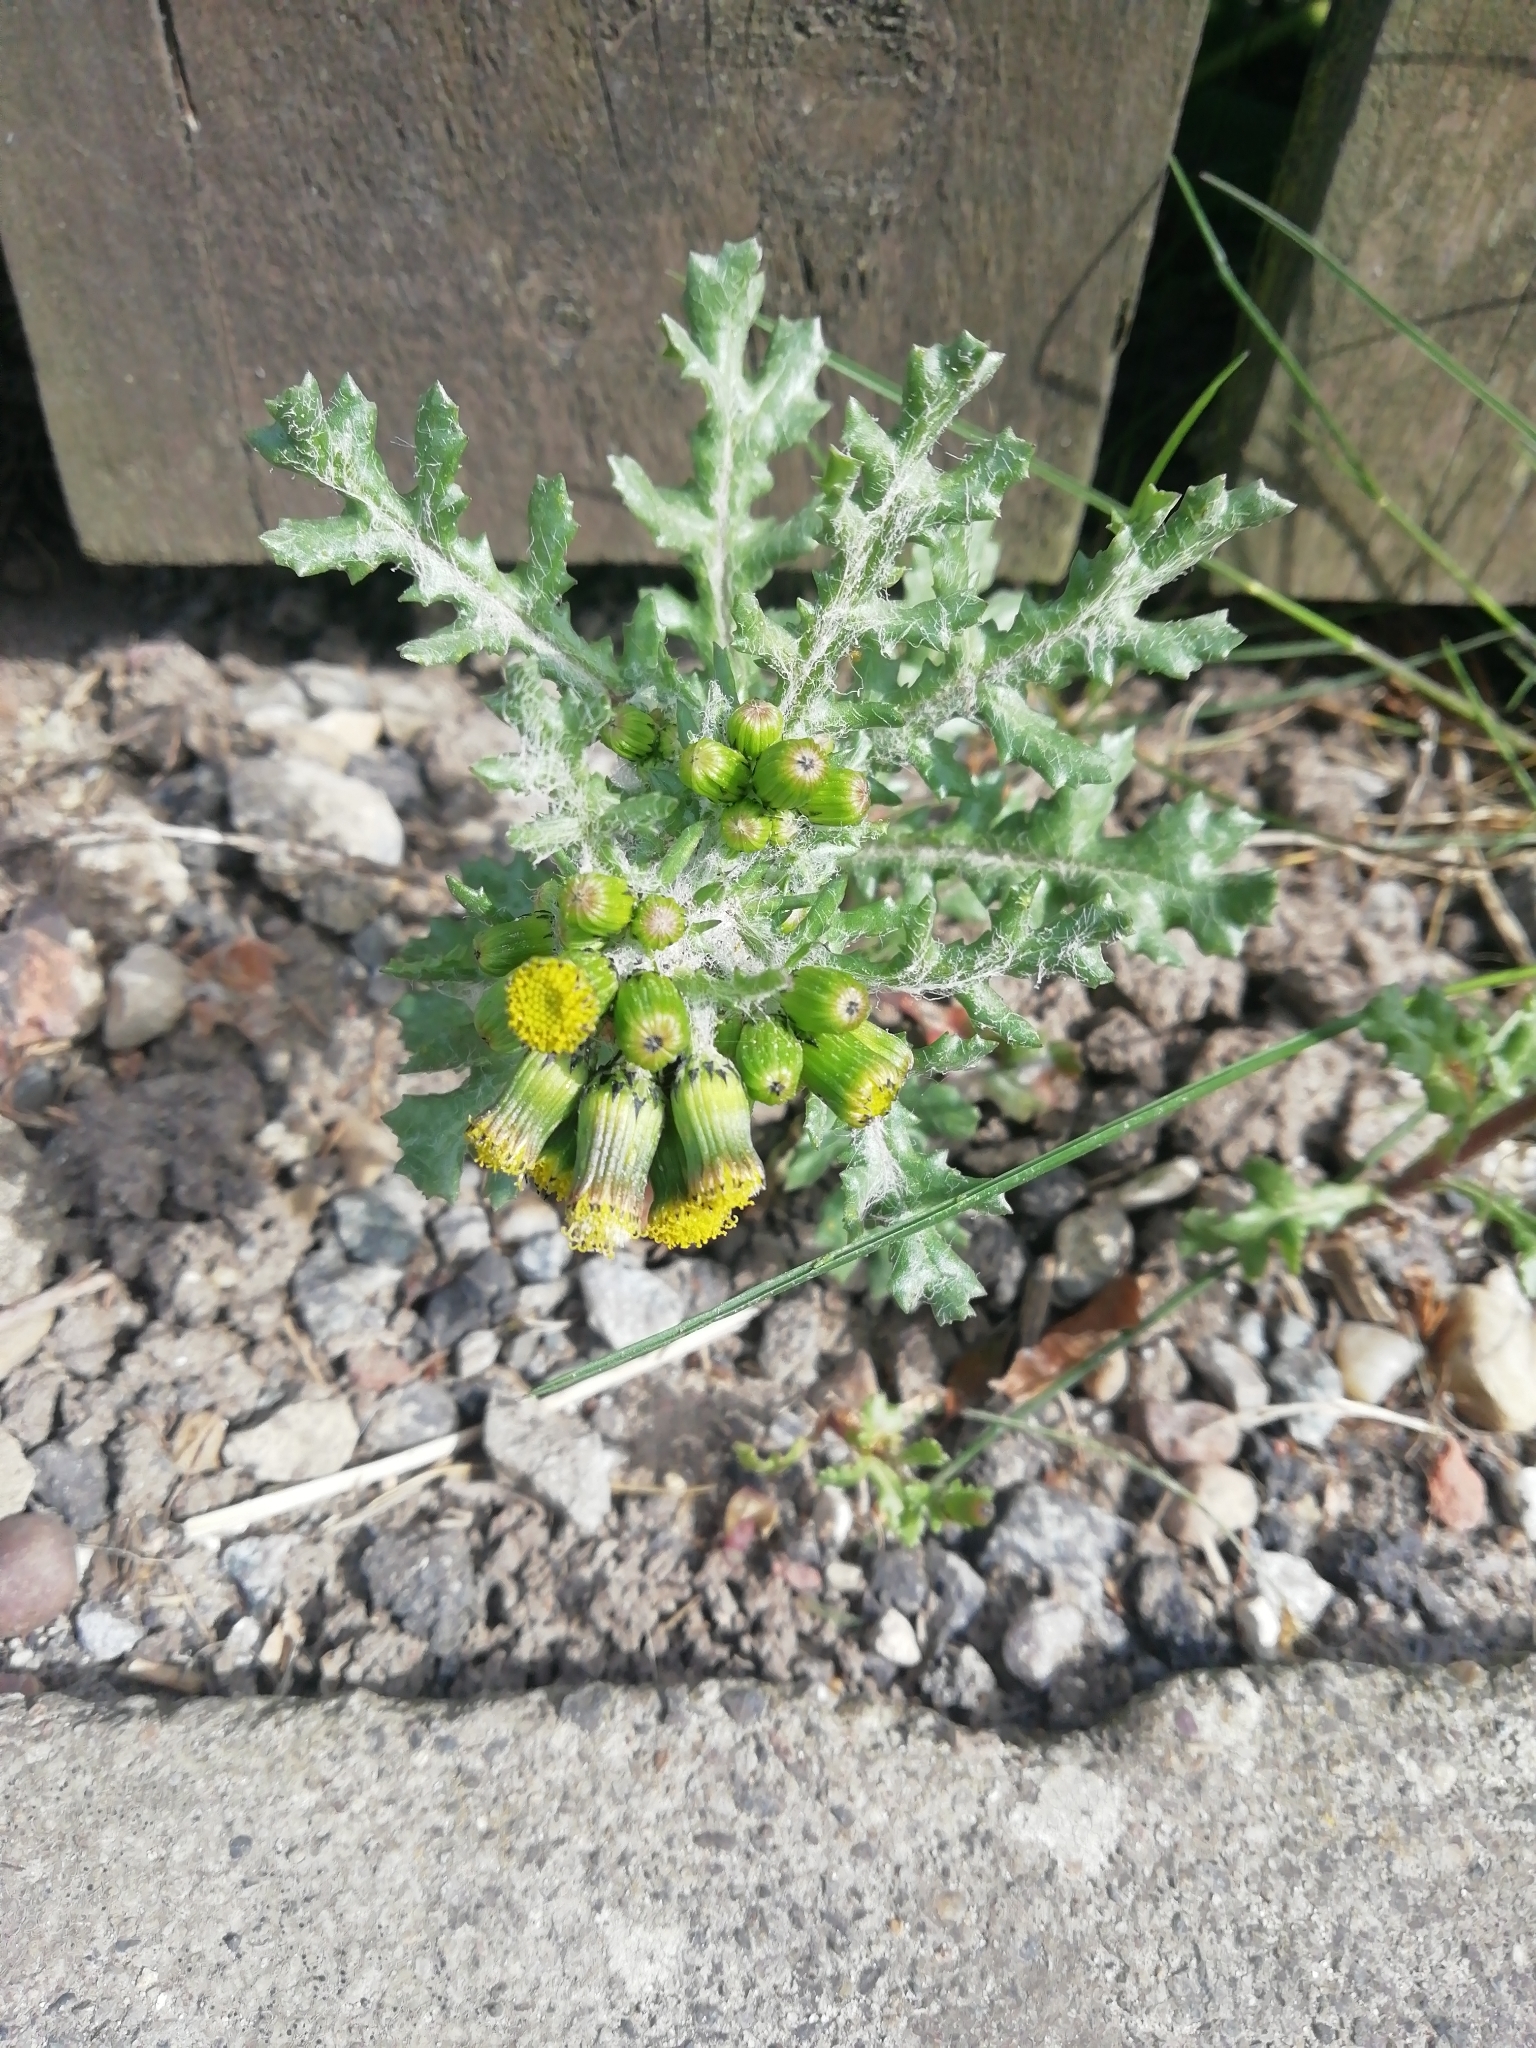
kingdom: Plantae
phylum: Tracheophyta
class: Magnoliopsida
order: Asterales
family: Asteraceae
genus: Senecio
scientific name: Senecio vulgaris
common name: Old-man-in-the-spring
